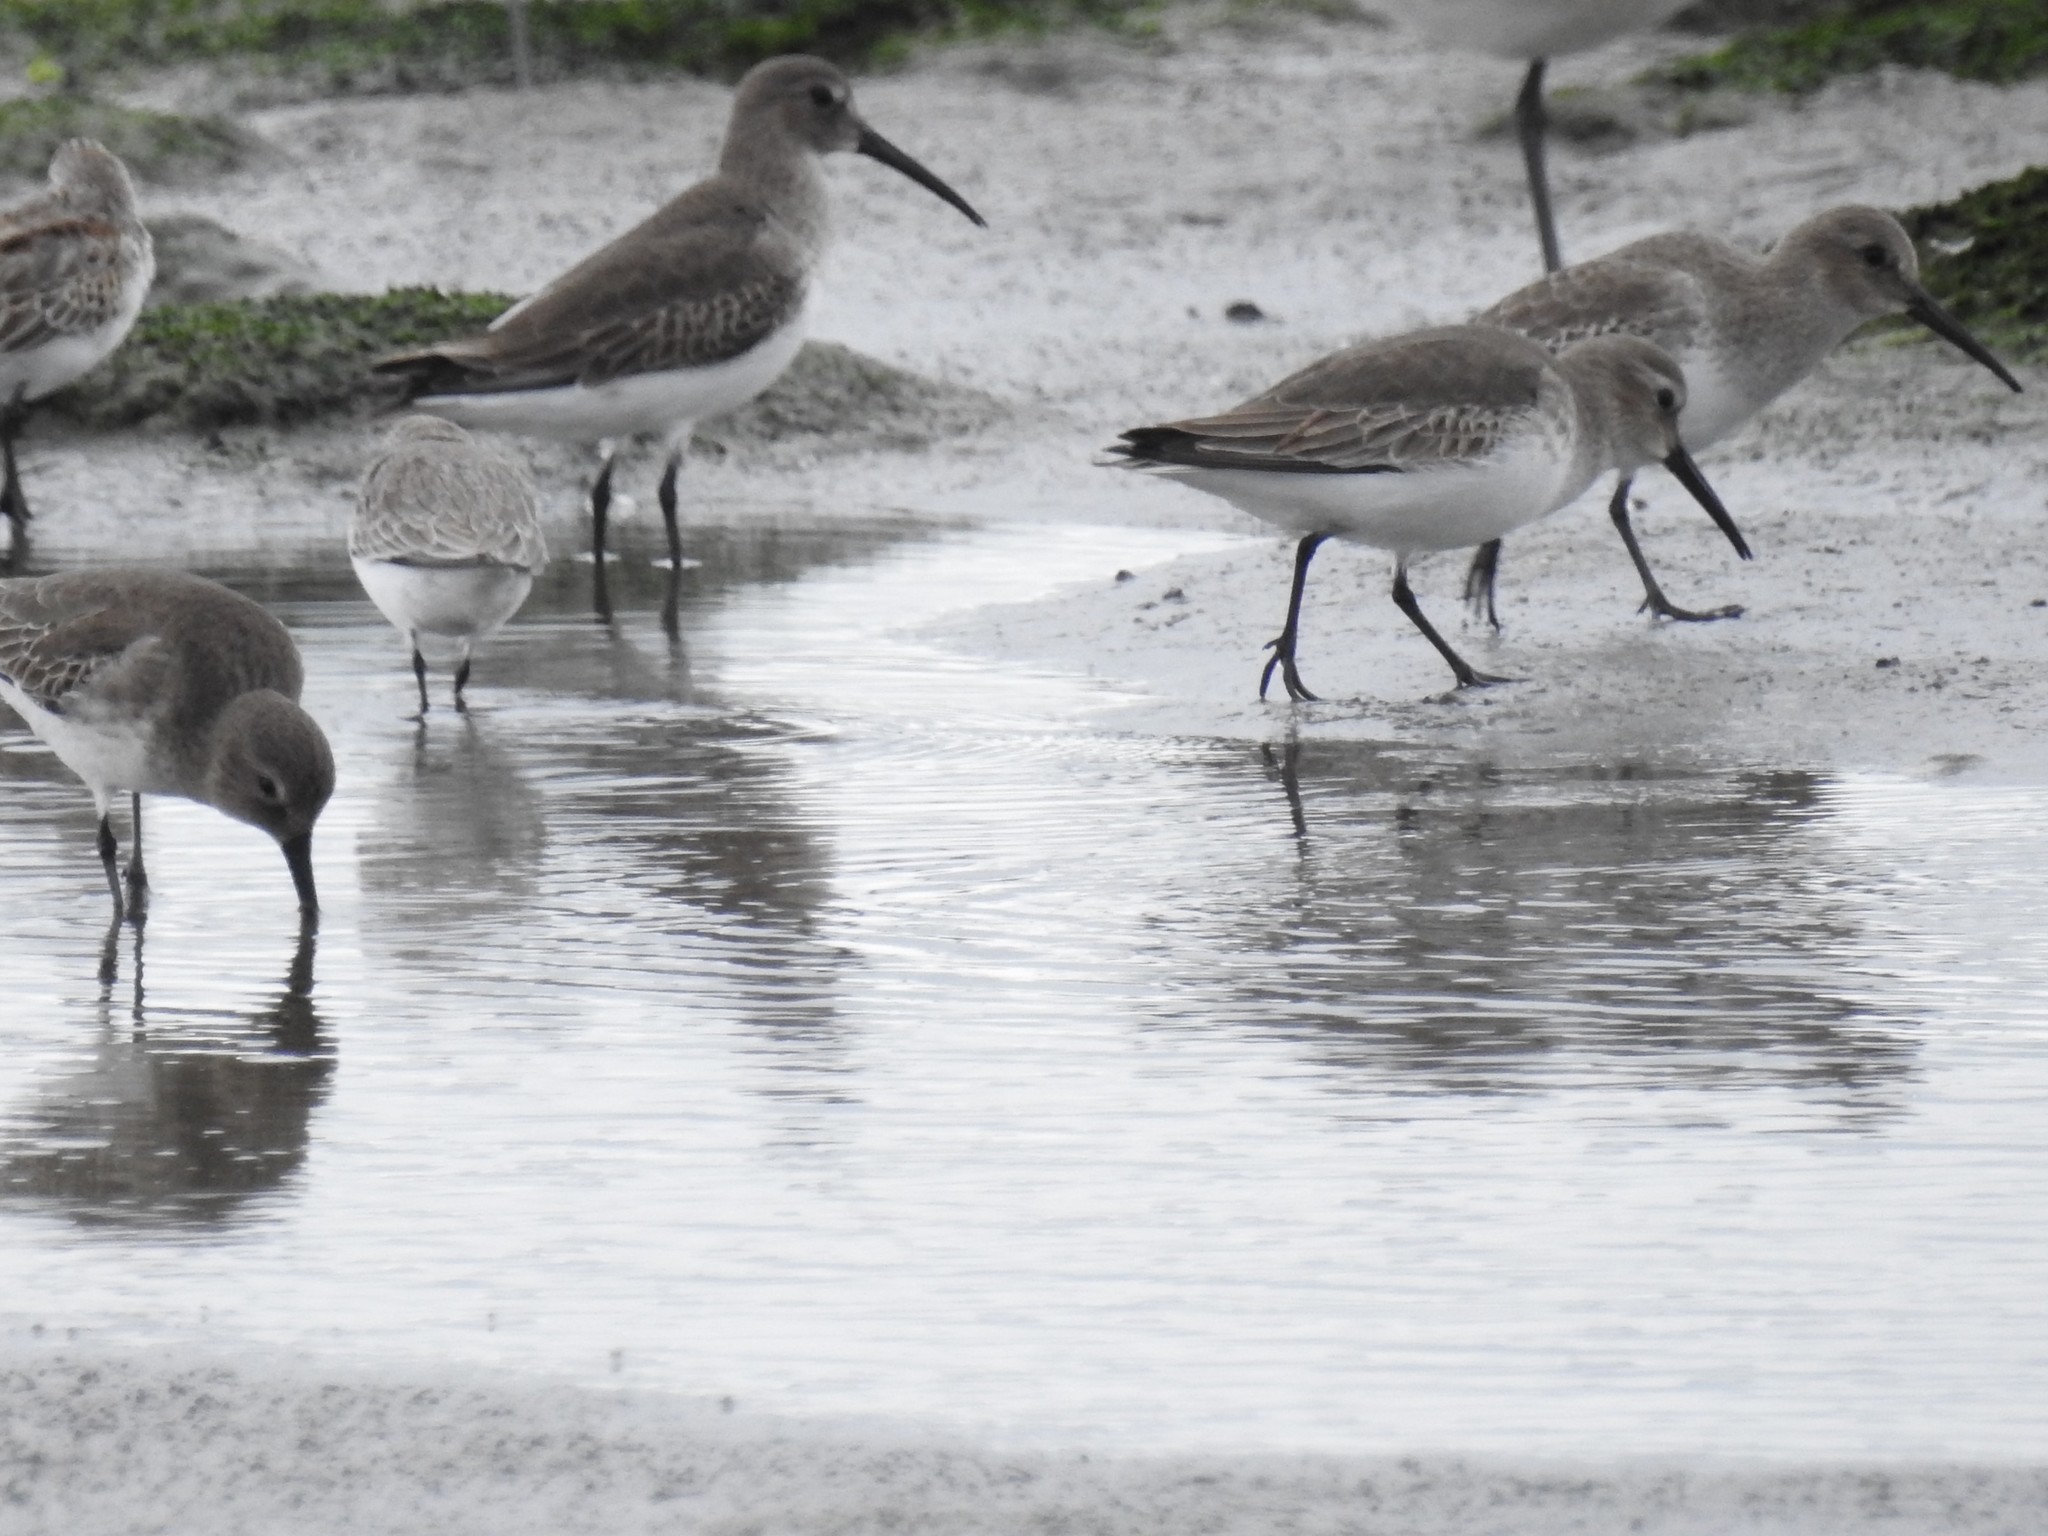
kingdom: Animalia
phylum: Chordata
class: Aves
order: Charadriiformes
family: Scolopacidae
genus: Calidris
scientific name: Calidris alpina
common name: Dunlin
